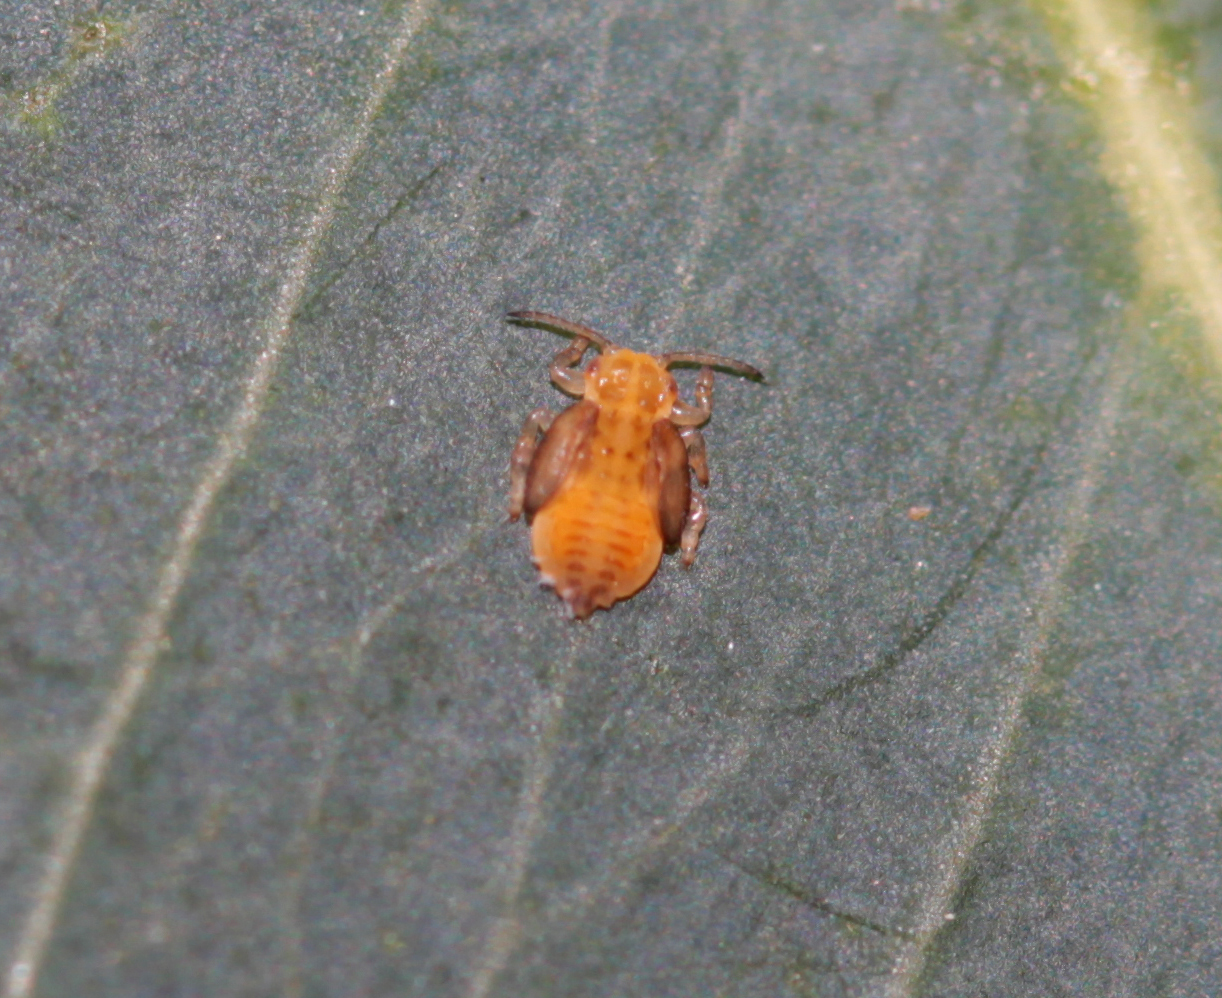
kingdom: Animalia
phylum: Arthropoda
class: Insecta
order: Hemiptera
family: Aphalaridae
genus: Glycaspis
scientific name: Glycaspis brimblecombei
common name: Red gum lerp psyllid
